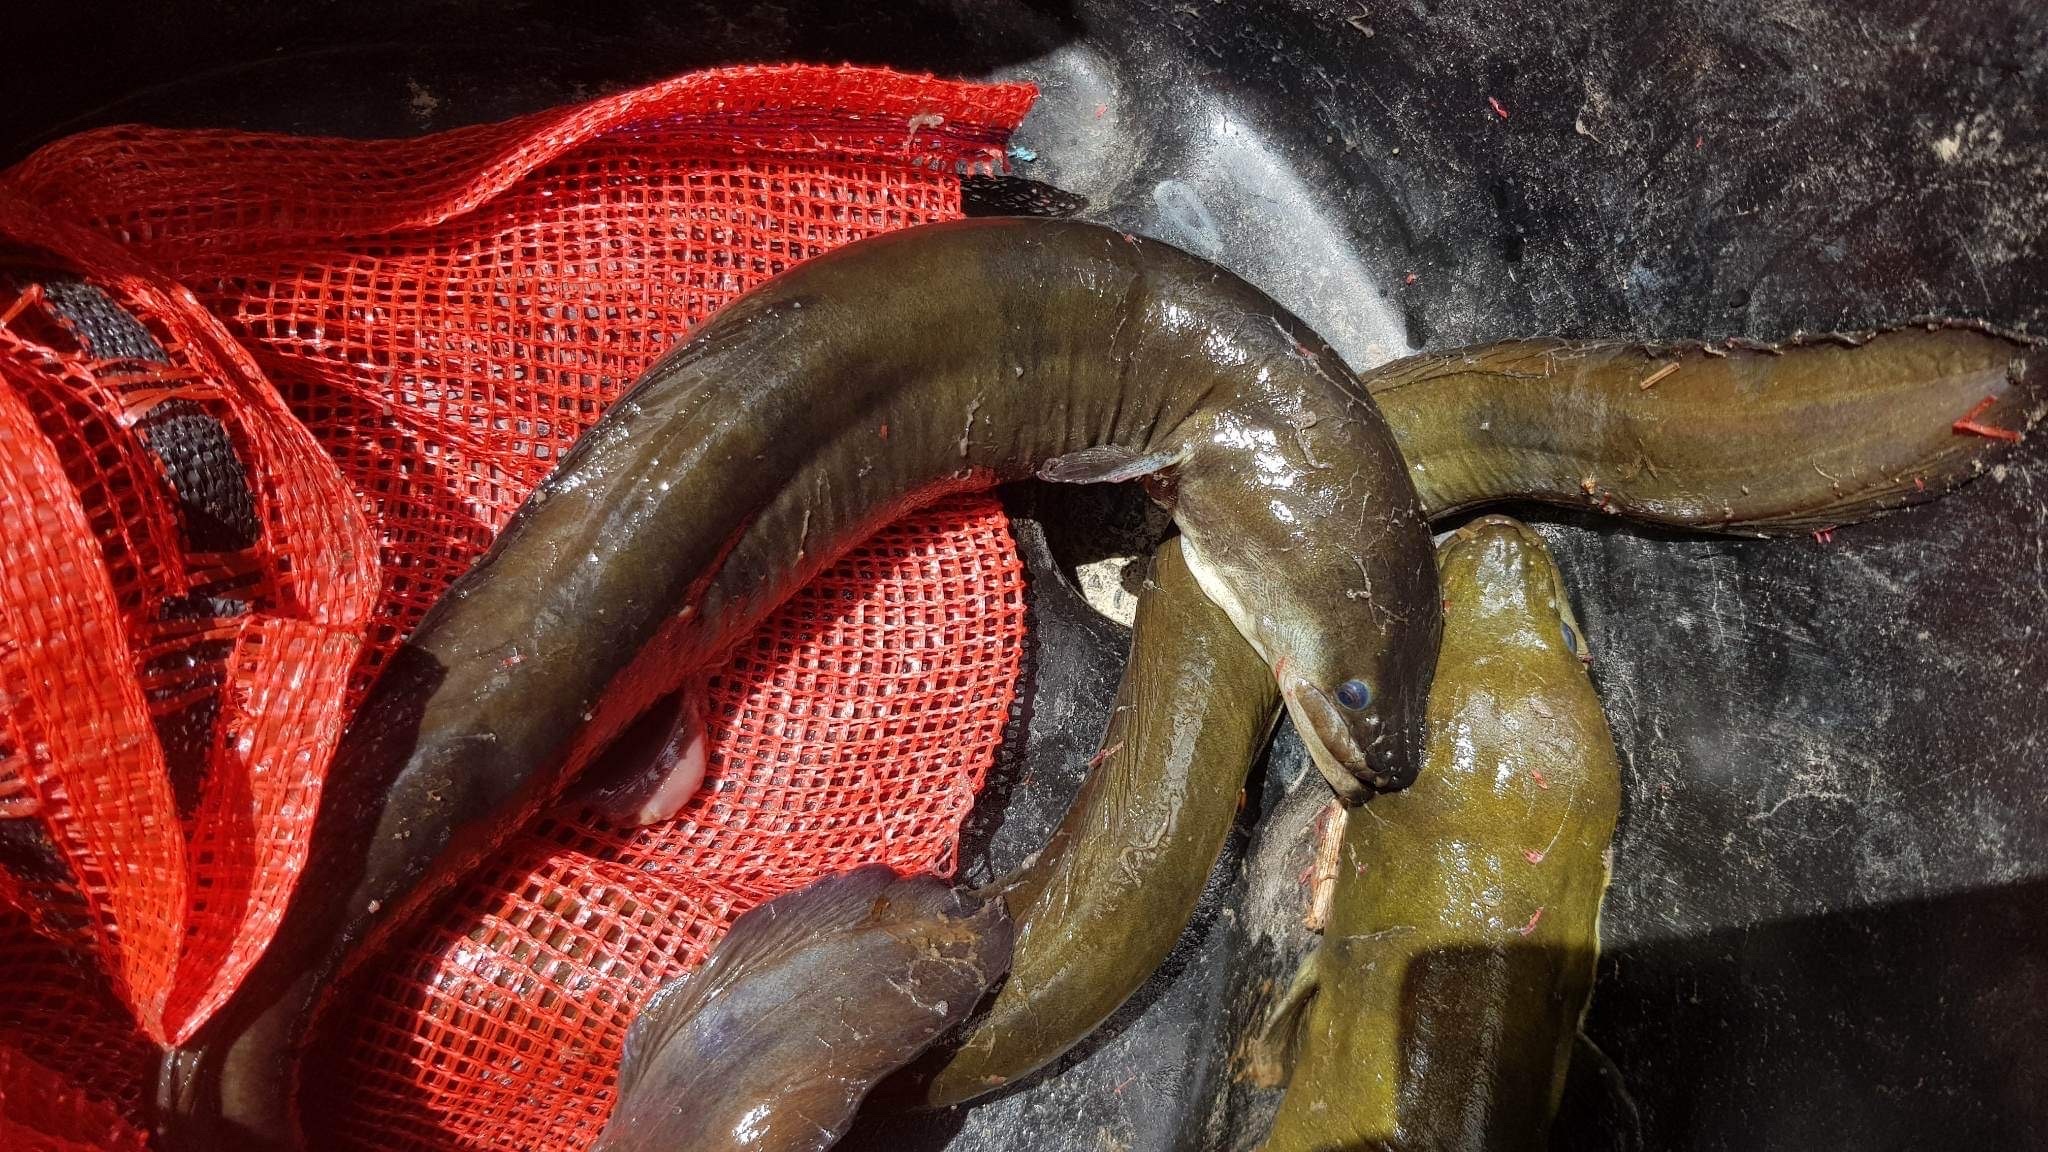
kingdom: Animalia
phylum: Chordata
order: Anguilliformes
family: Anguillidae
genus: Anguilla
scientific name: Anguilla dieffenbachii
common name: New zealand longfin eel
